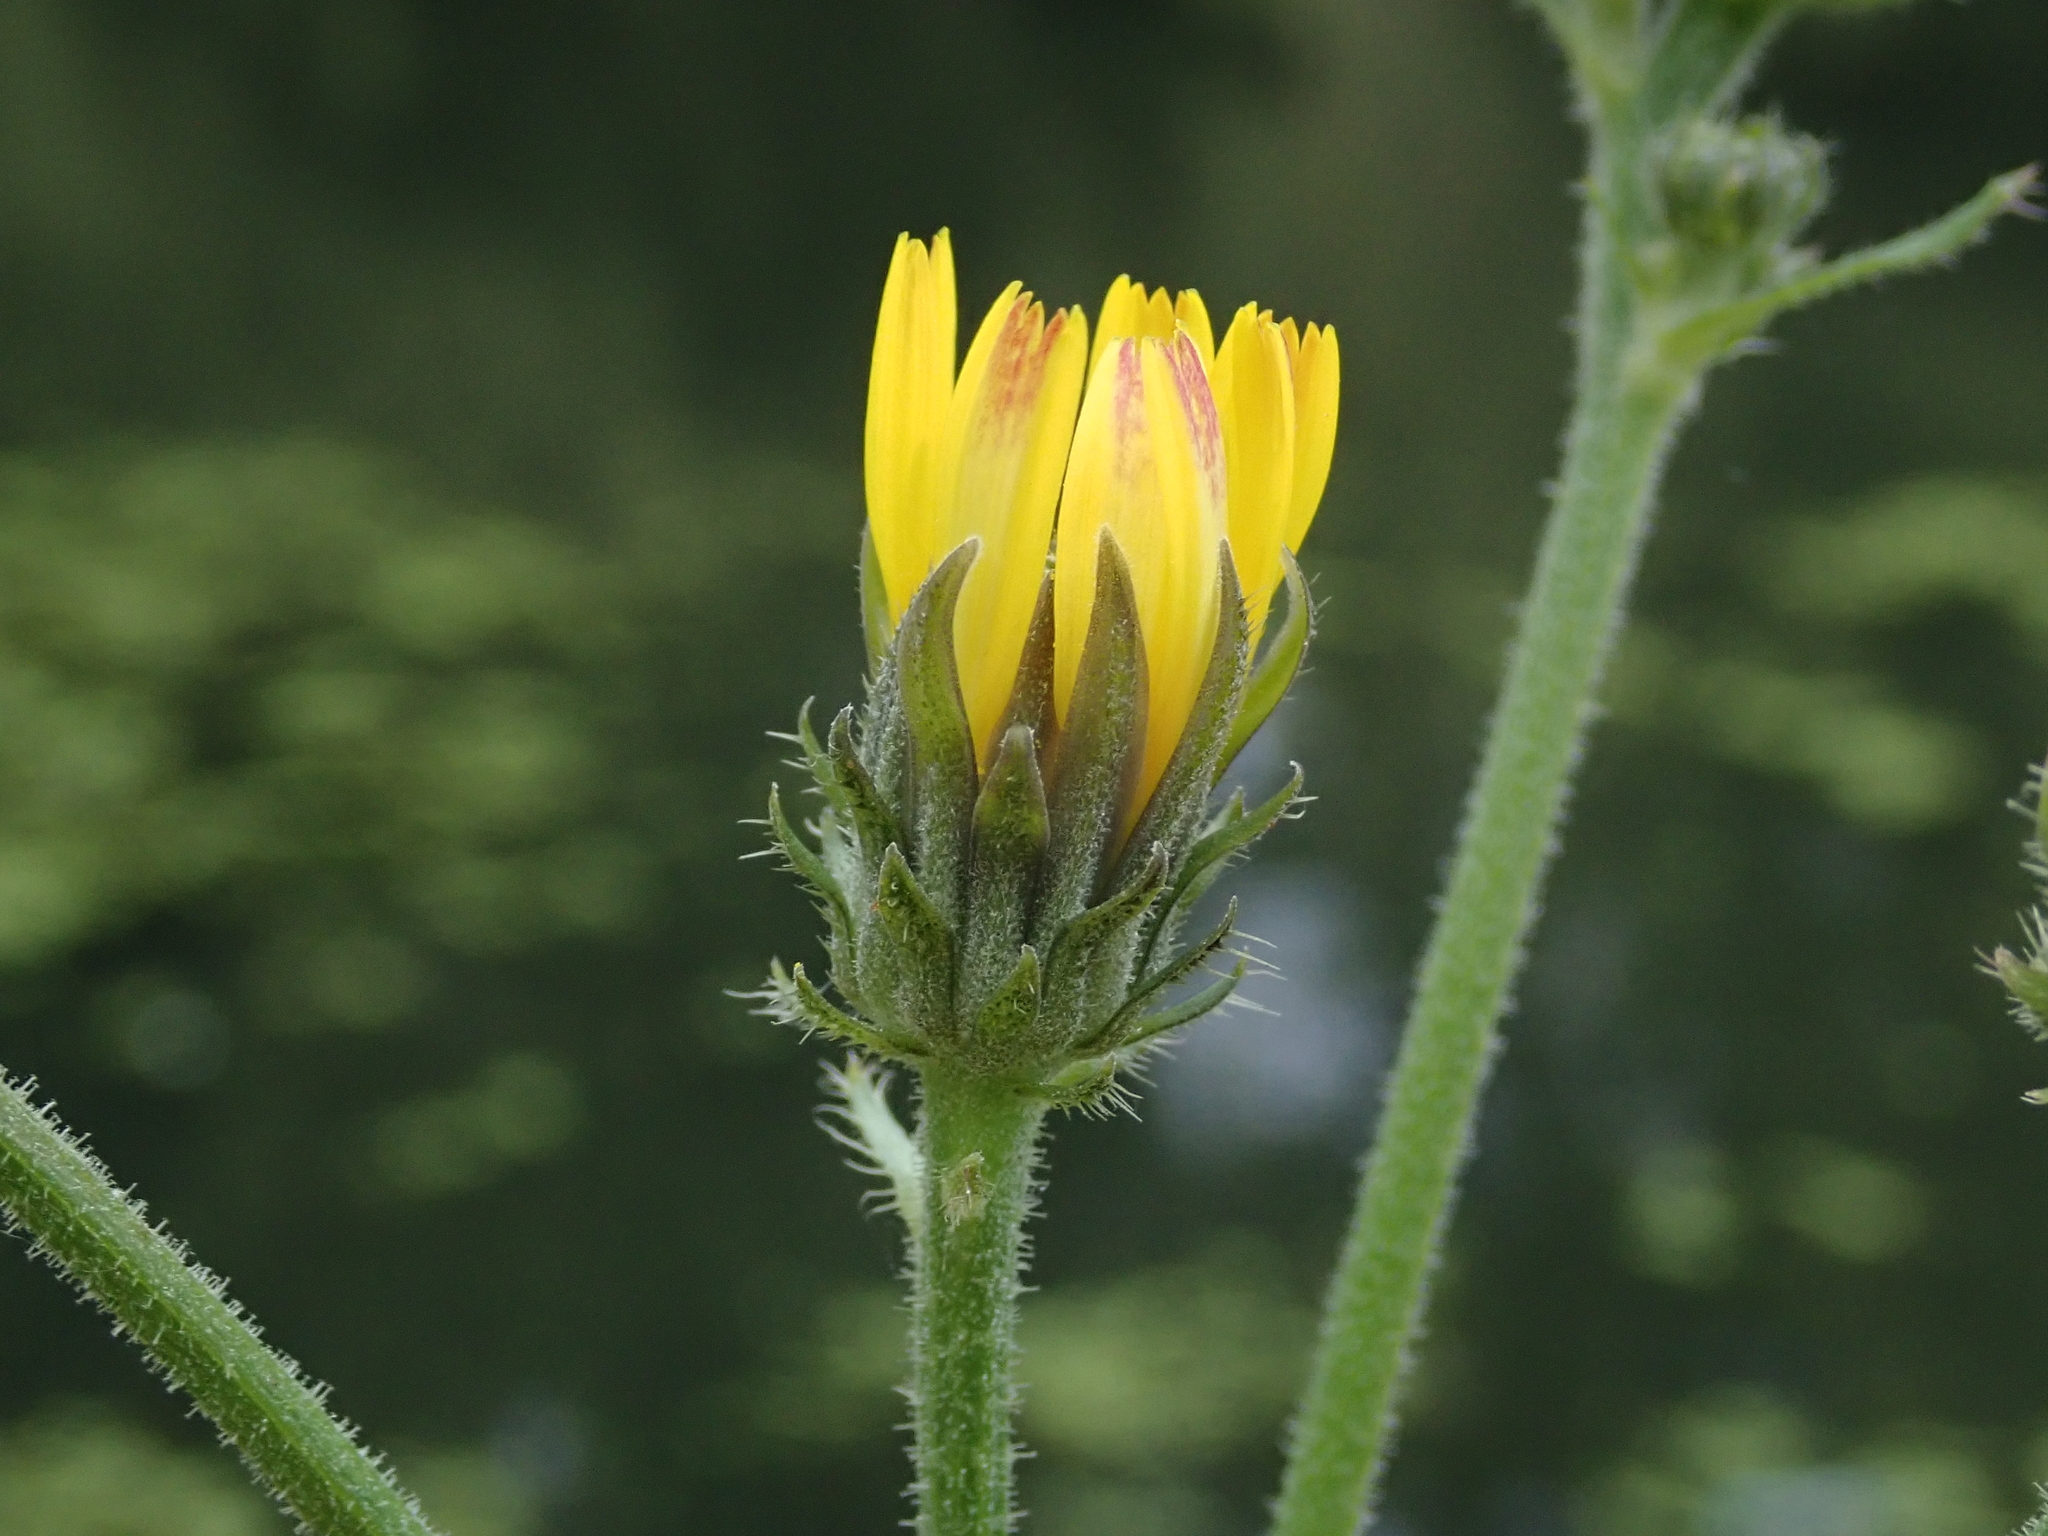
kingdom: Plantae
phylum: Tracheophyta
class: Magnoliopsida
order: Asterales
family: Asteraceae
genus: Picris
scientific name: Picris hieracioides
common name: Hawkweed oxtongue
